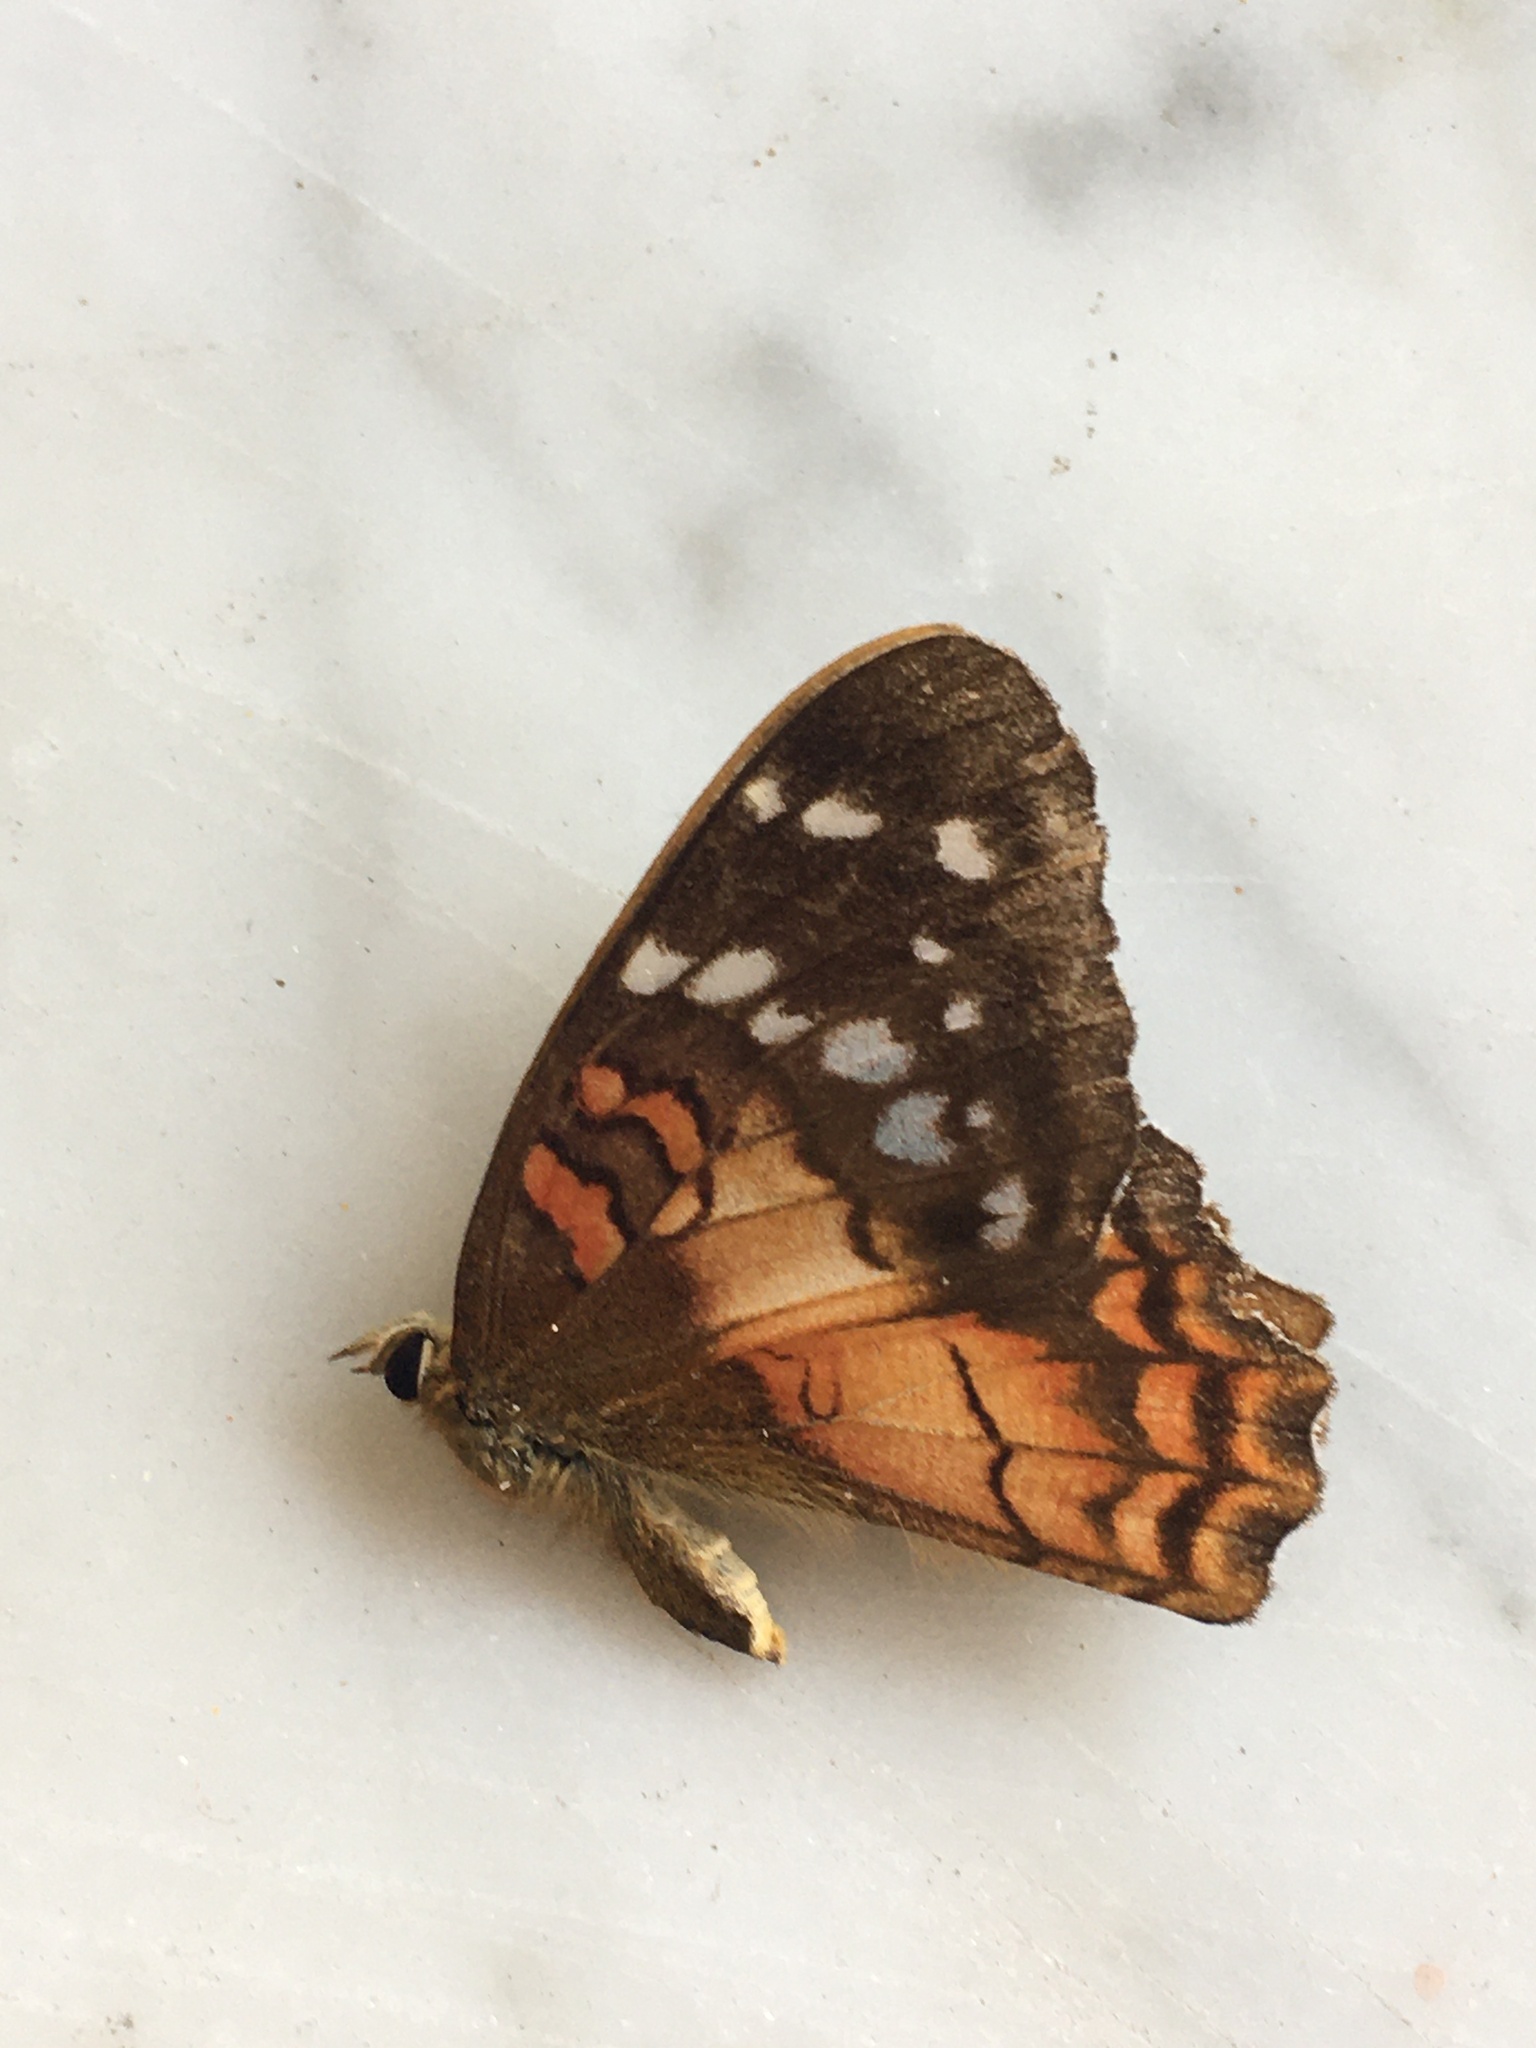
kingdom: Animalia
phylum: Arthropoda
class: Insecta
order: Lepidoptera
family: Nymphalidae
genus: Anartia
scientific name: Anartia amathea
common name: Red peacock
